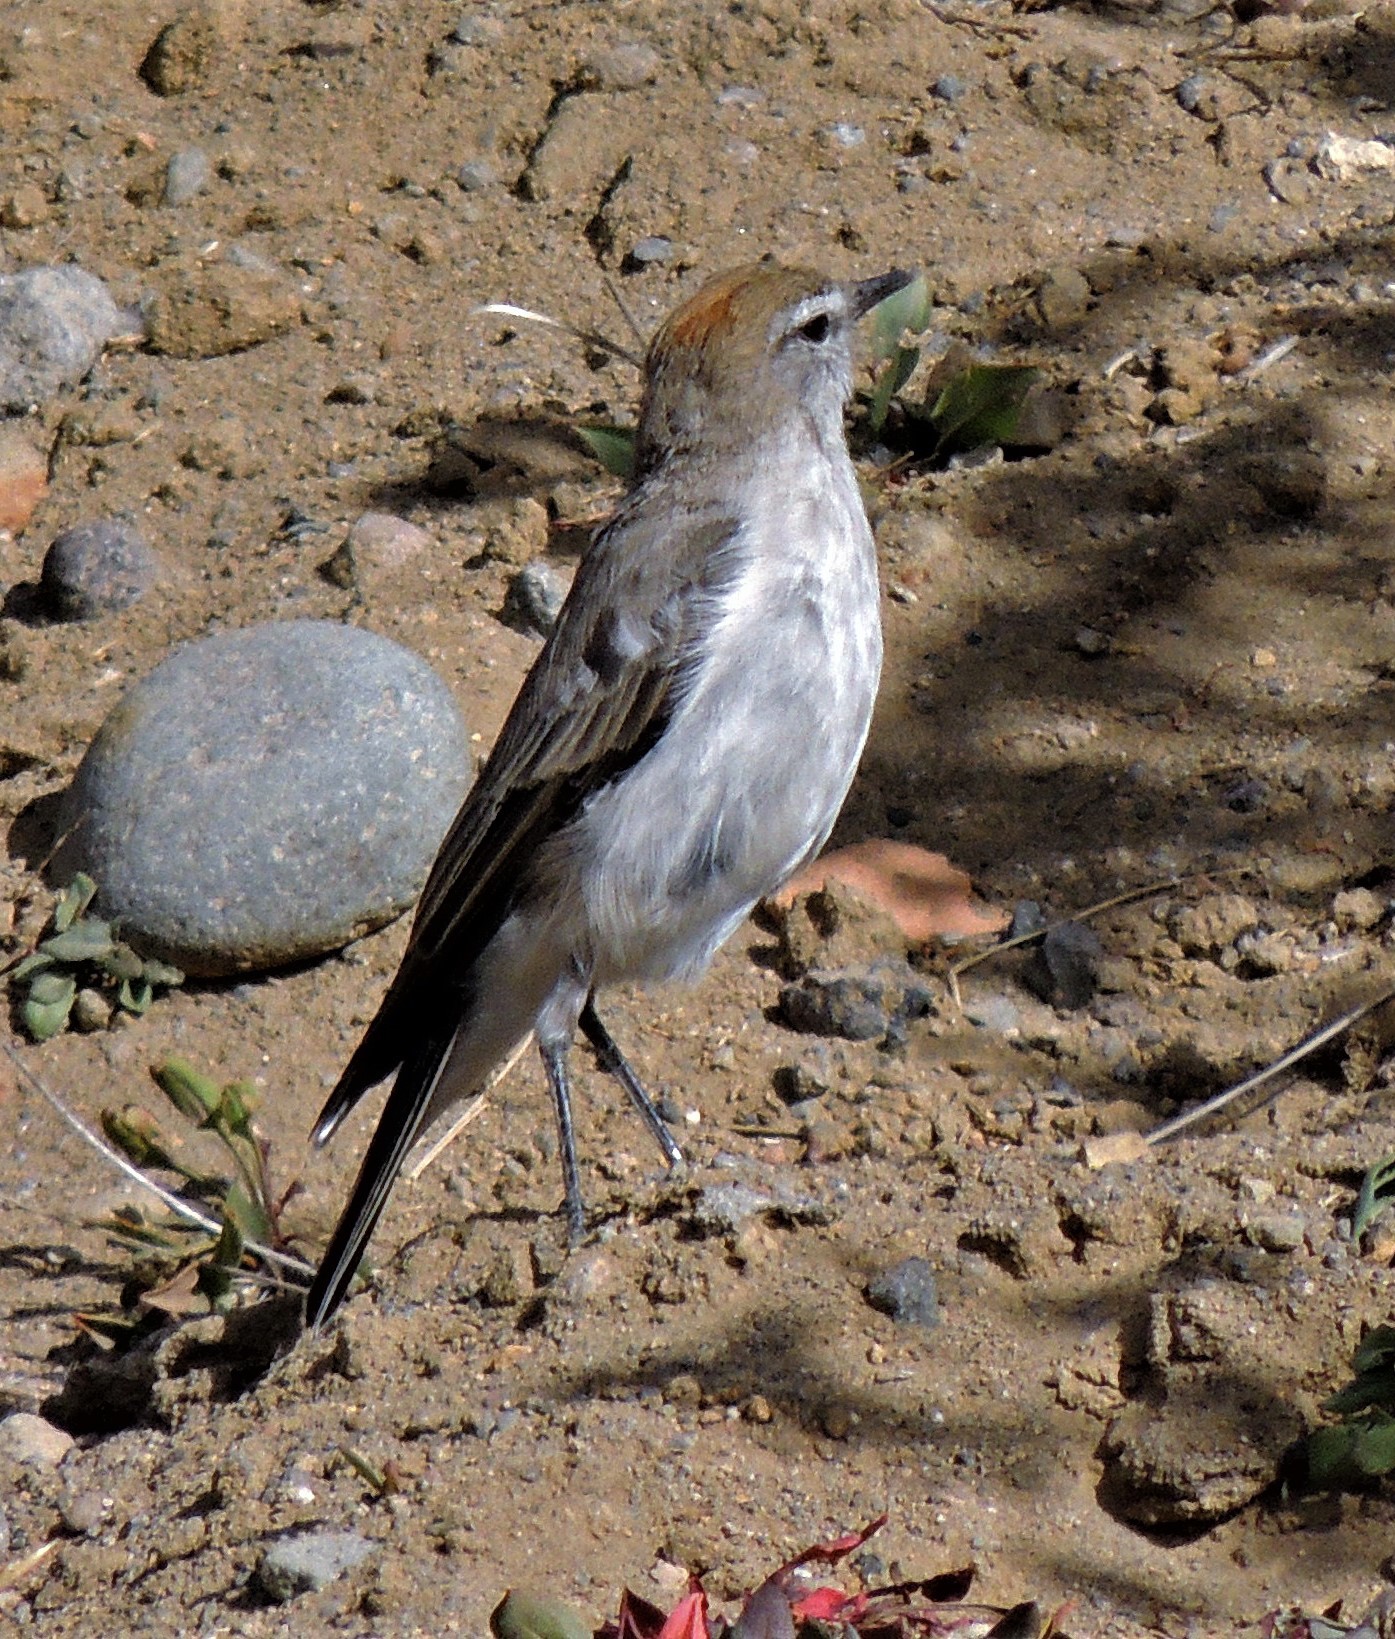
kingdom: Animalia
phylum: Chordata
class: Aves
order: Passeriformes
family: Tyrannidae
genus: Muscisaxicola
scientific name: Muscisaxicola albilora
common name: White-browed ground tyrant
